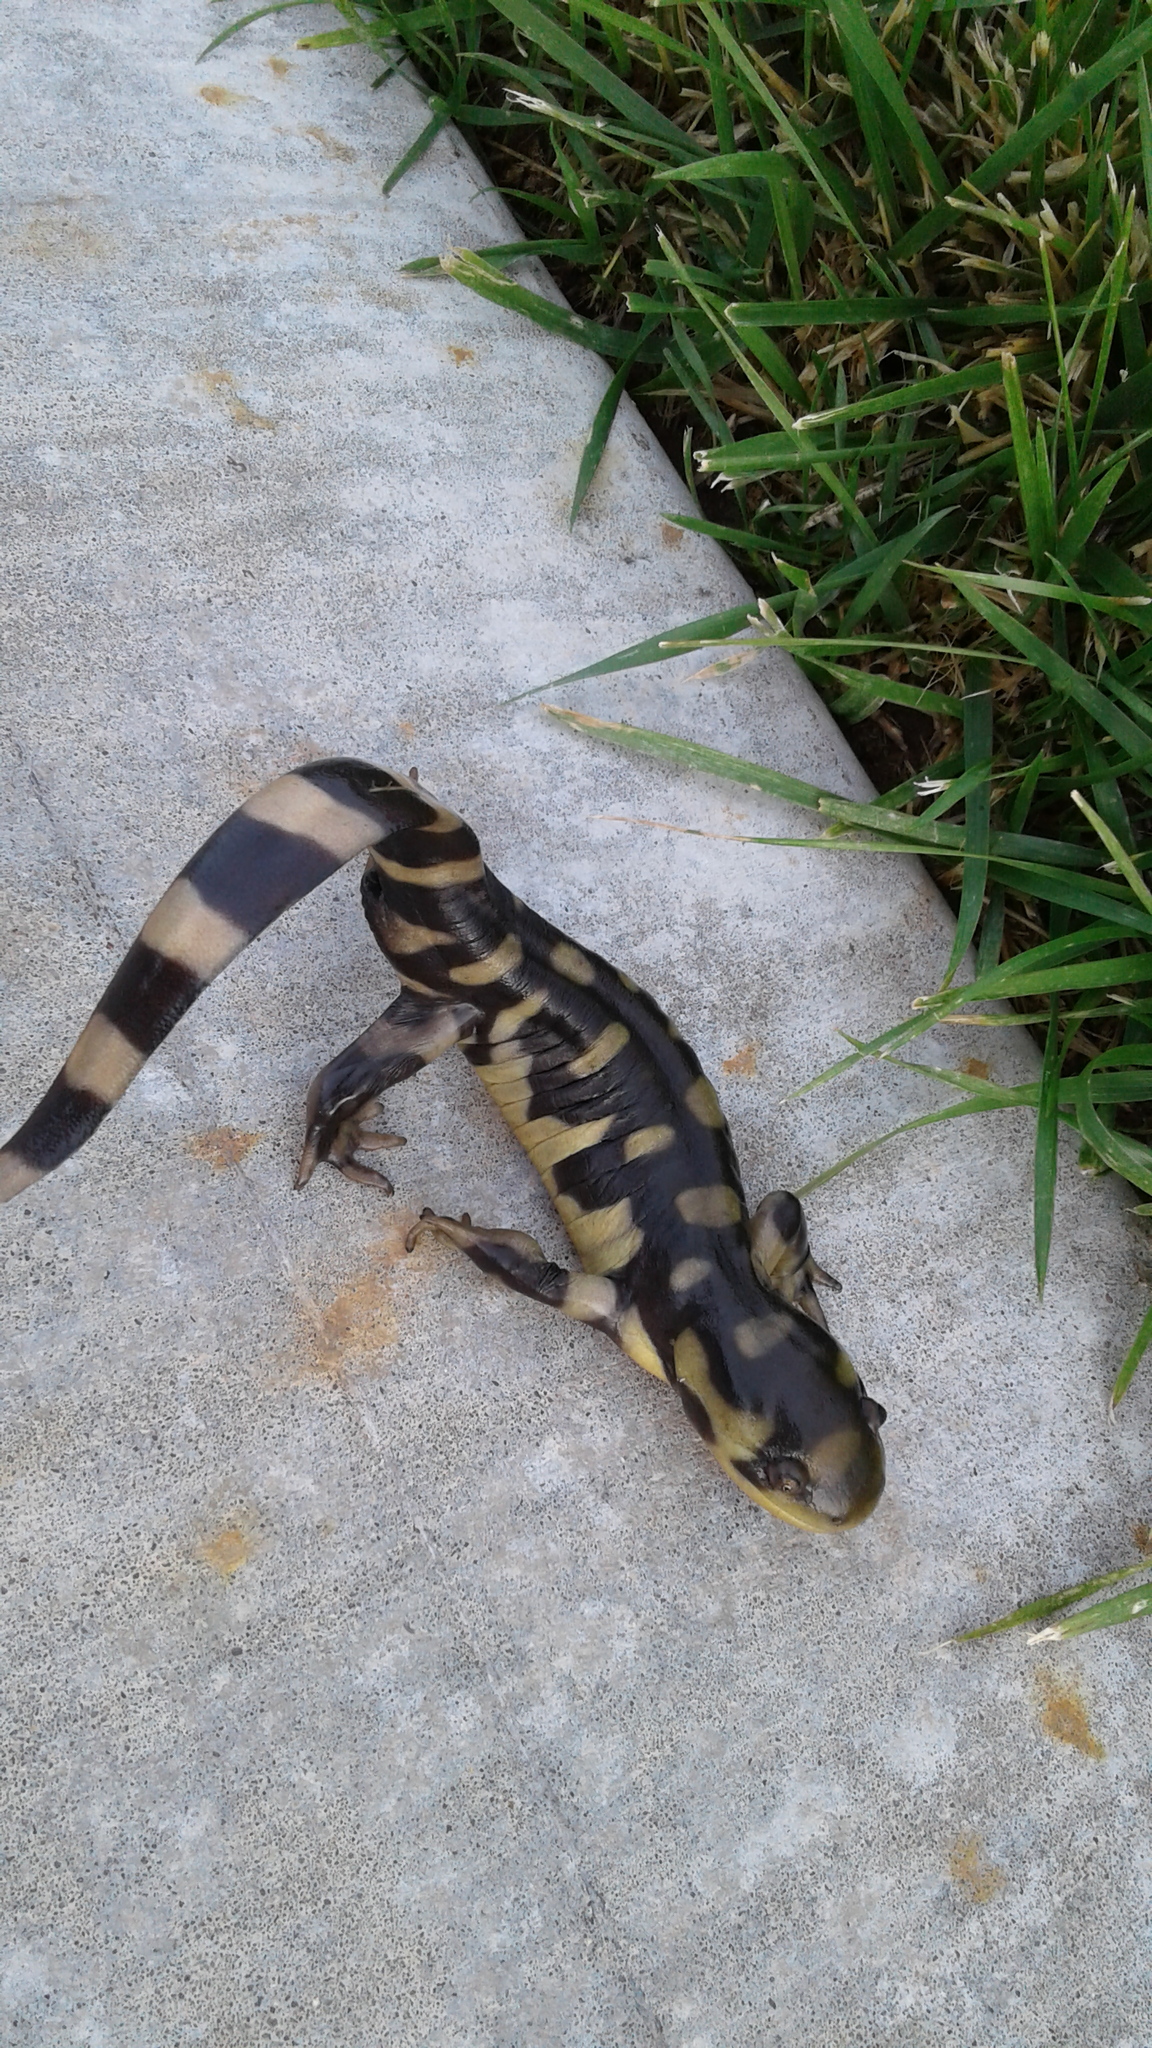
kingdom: Animalia
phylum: Chordata
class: Amphibia
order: Caudata
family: Ambystomatidae
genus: Ambystoma
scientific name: Ambystoma mavortium
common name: Western tiger salamander
